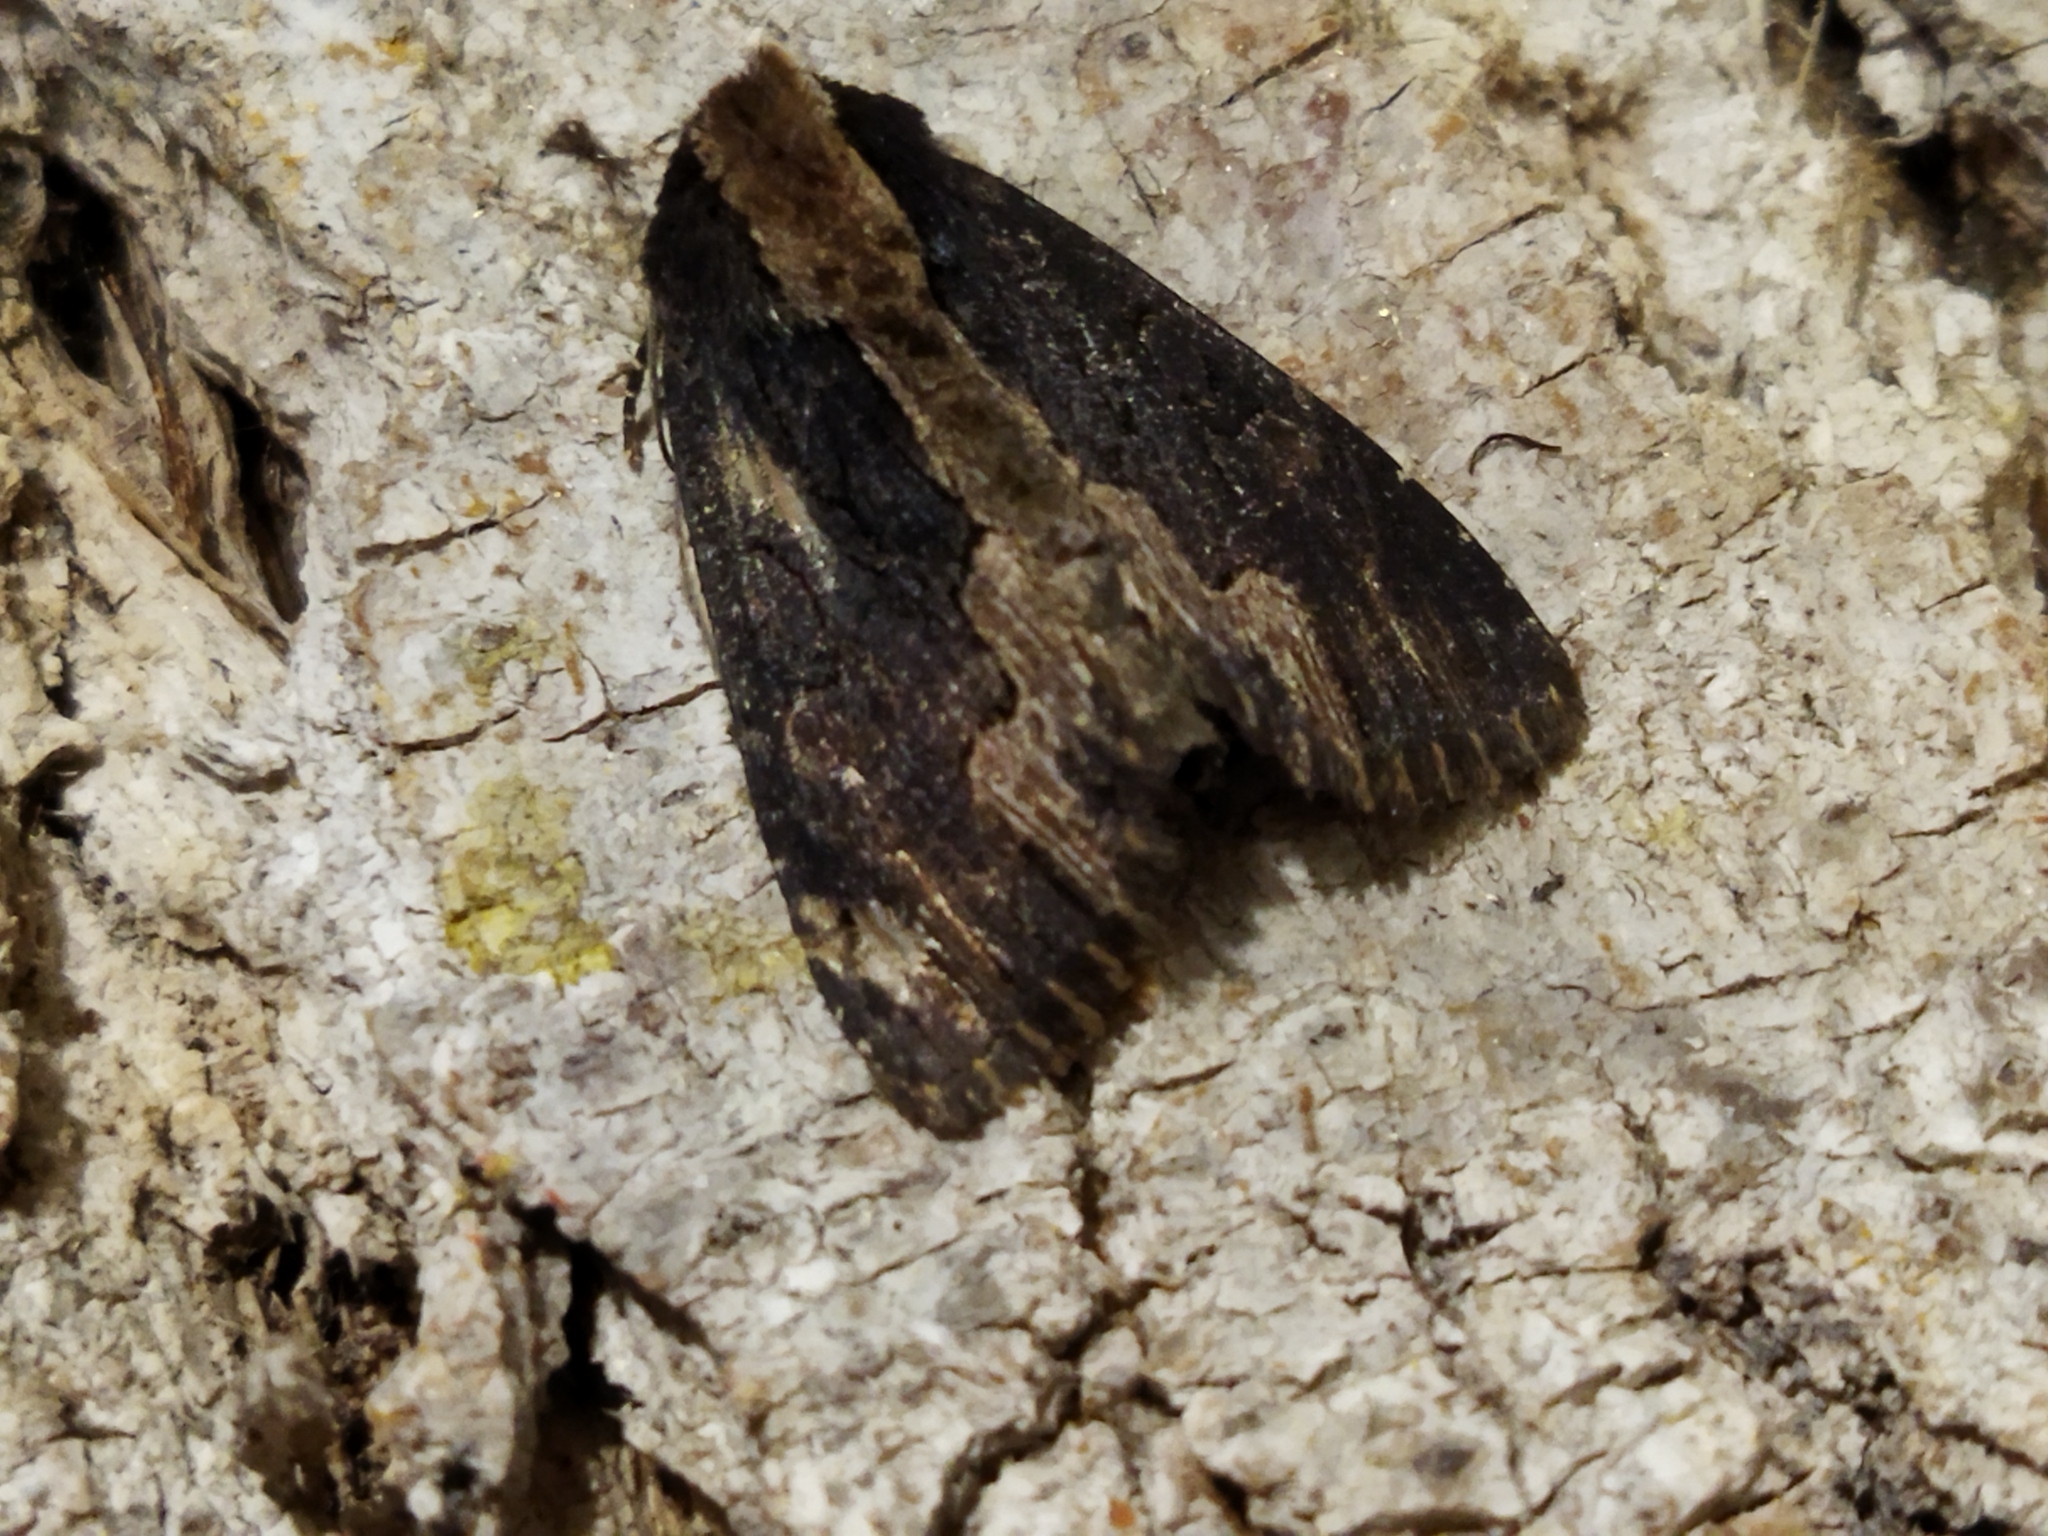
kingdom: Animalia
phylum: Arthropoda
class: Insecta
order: Lepidoptera
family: Noctuidae
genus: Dypterygia
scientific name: Dypterygia scabriuscula
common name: Bird's wing
